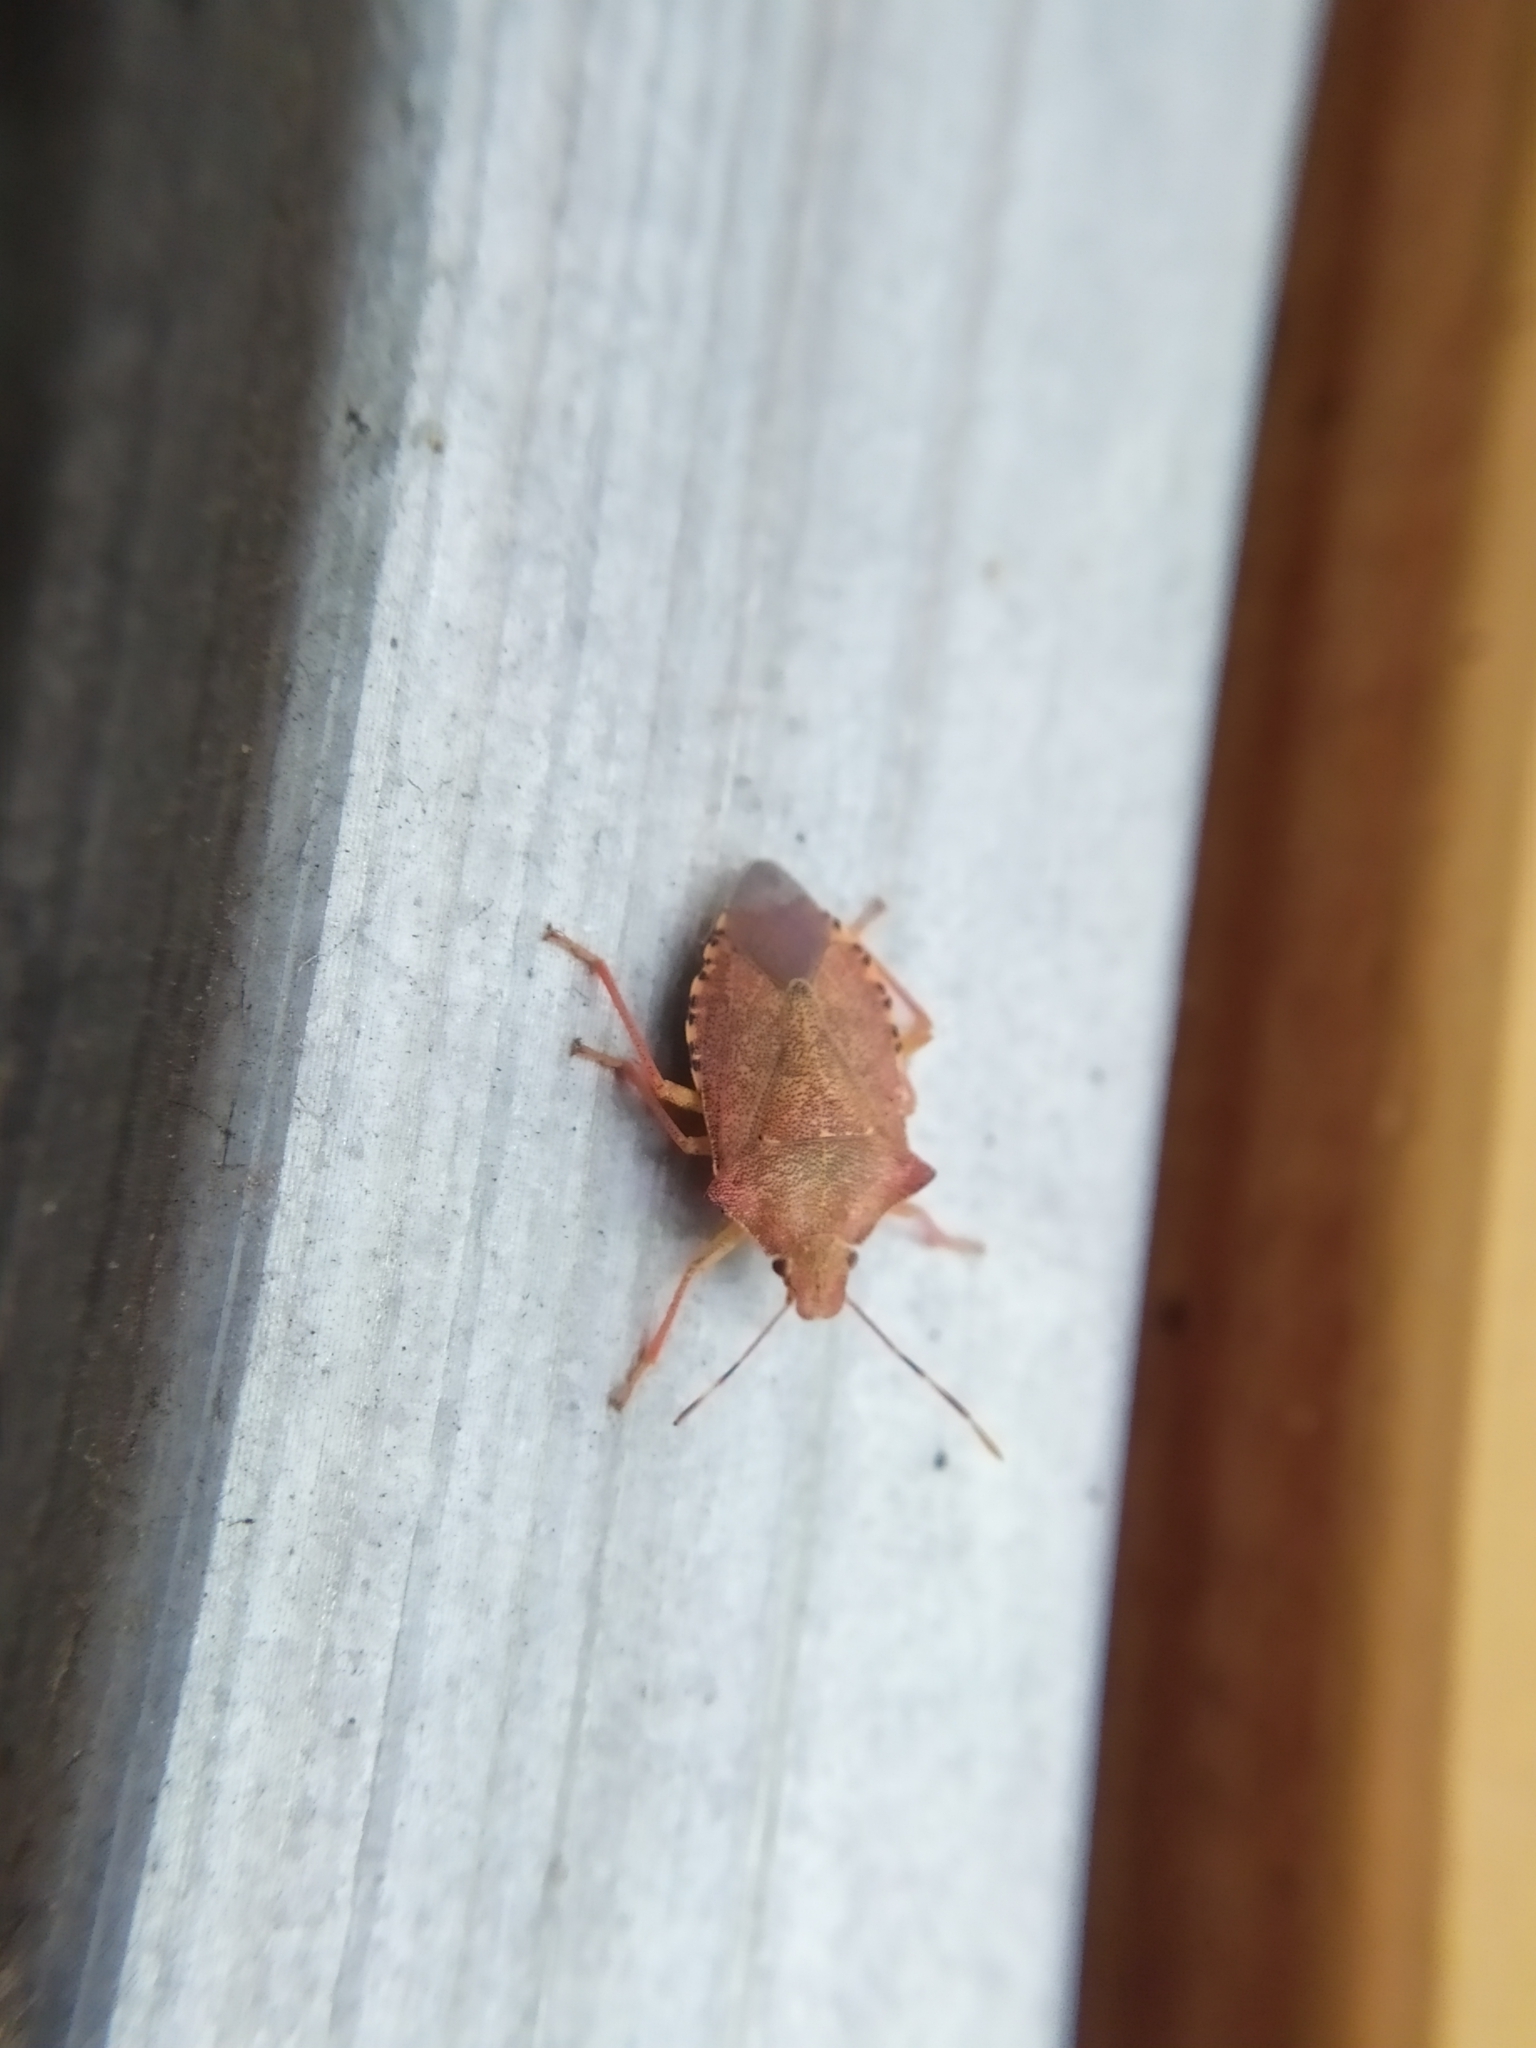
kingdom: Animalia
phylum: Arthropoda
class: Insecta
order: Hemiptera
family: Pentatomidae
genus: Arma
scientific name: Arma custos
